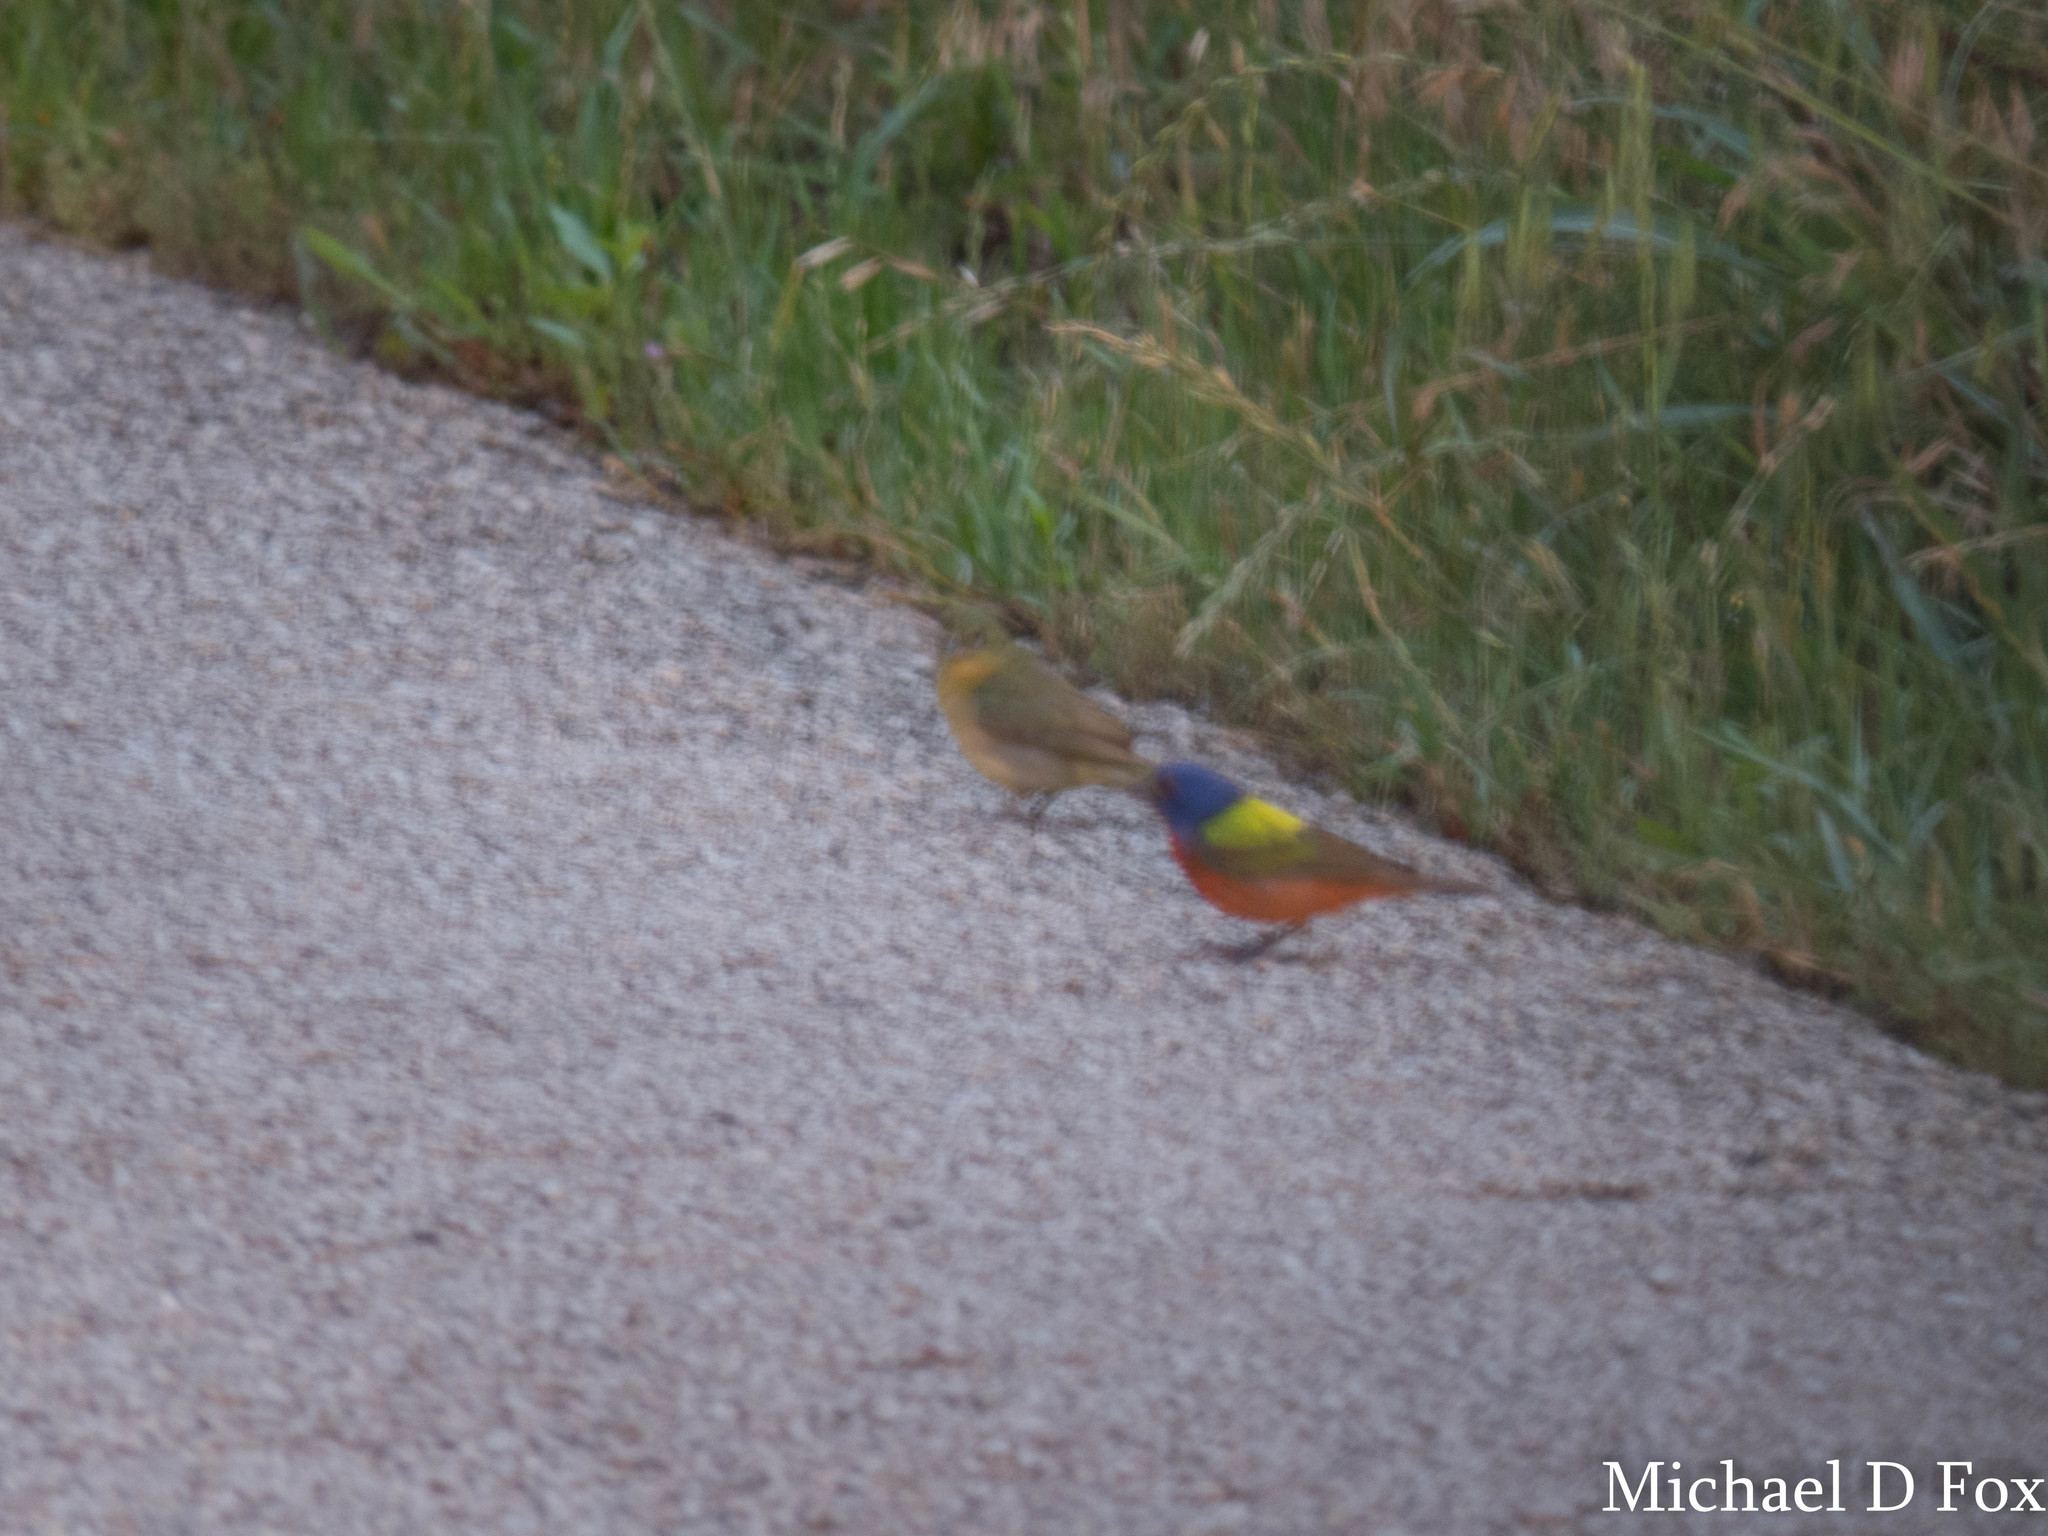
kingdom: Animalia
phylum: Chordata
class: Aves
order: Passeriformes
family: Cardinalidae
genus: Passerina
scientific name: Passerina ciris
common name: Painted bunting
